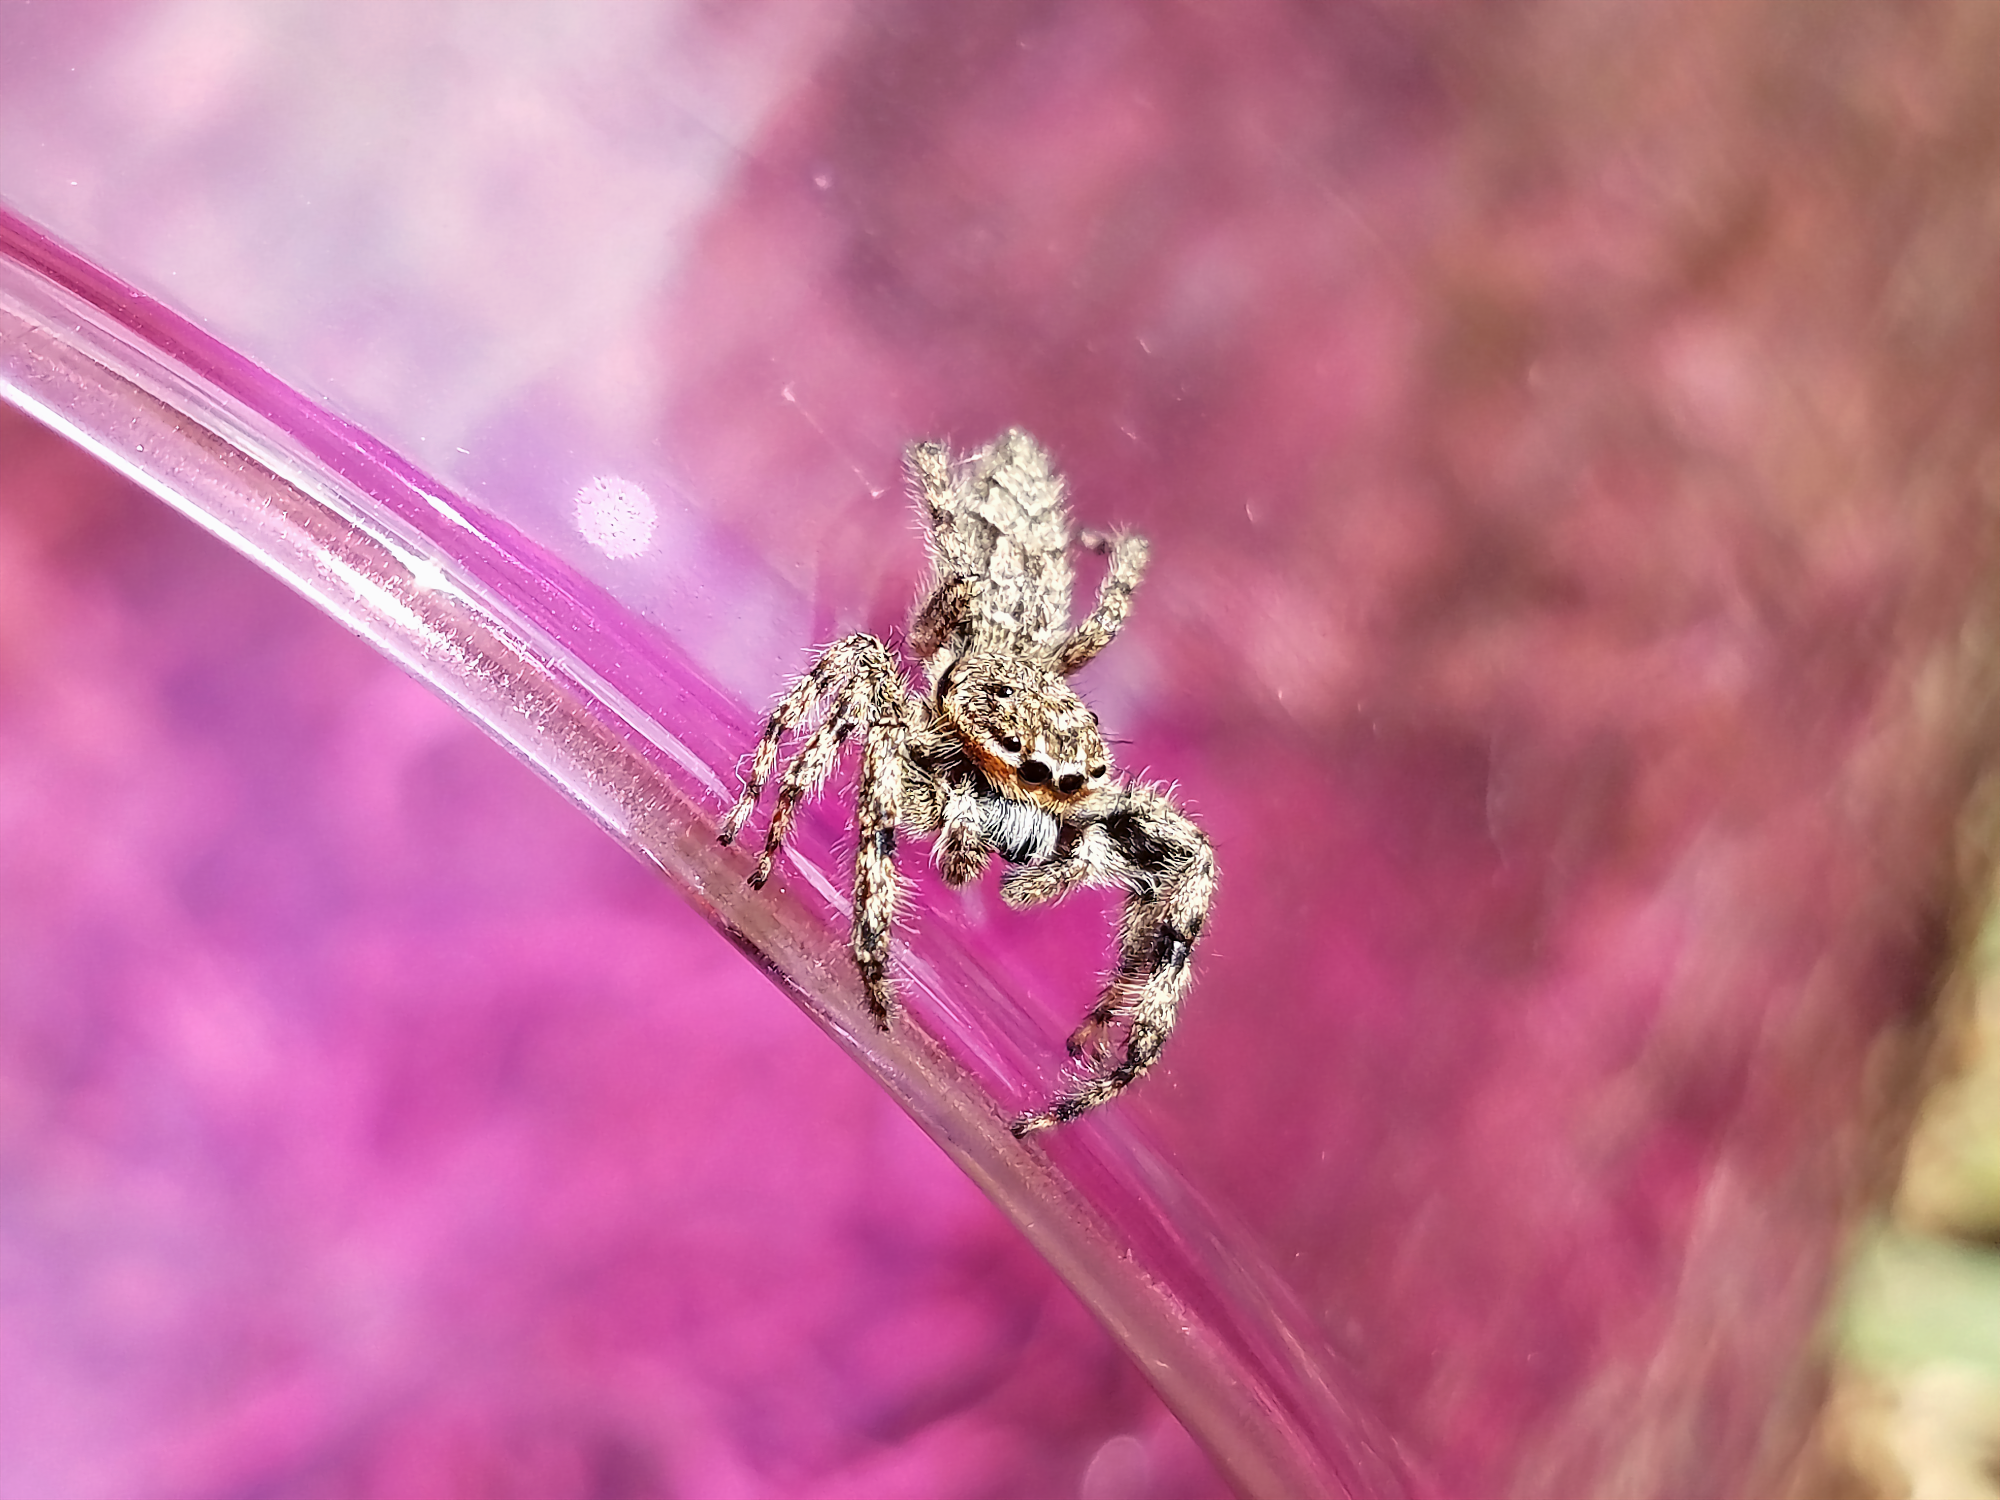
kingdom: Animalia
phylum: Arthropoda
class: Arachnida
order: Araneae
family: Salticidae
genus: Platycryptus
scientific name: Platycryptus undatus
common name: Tan jumping spider
